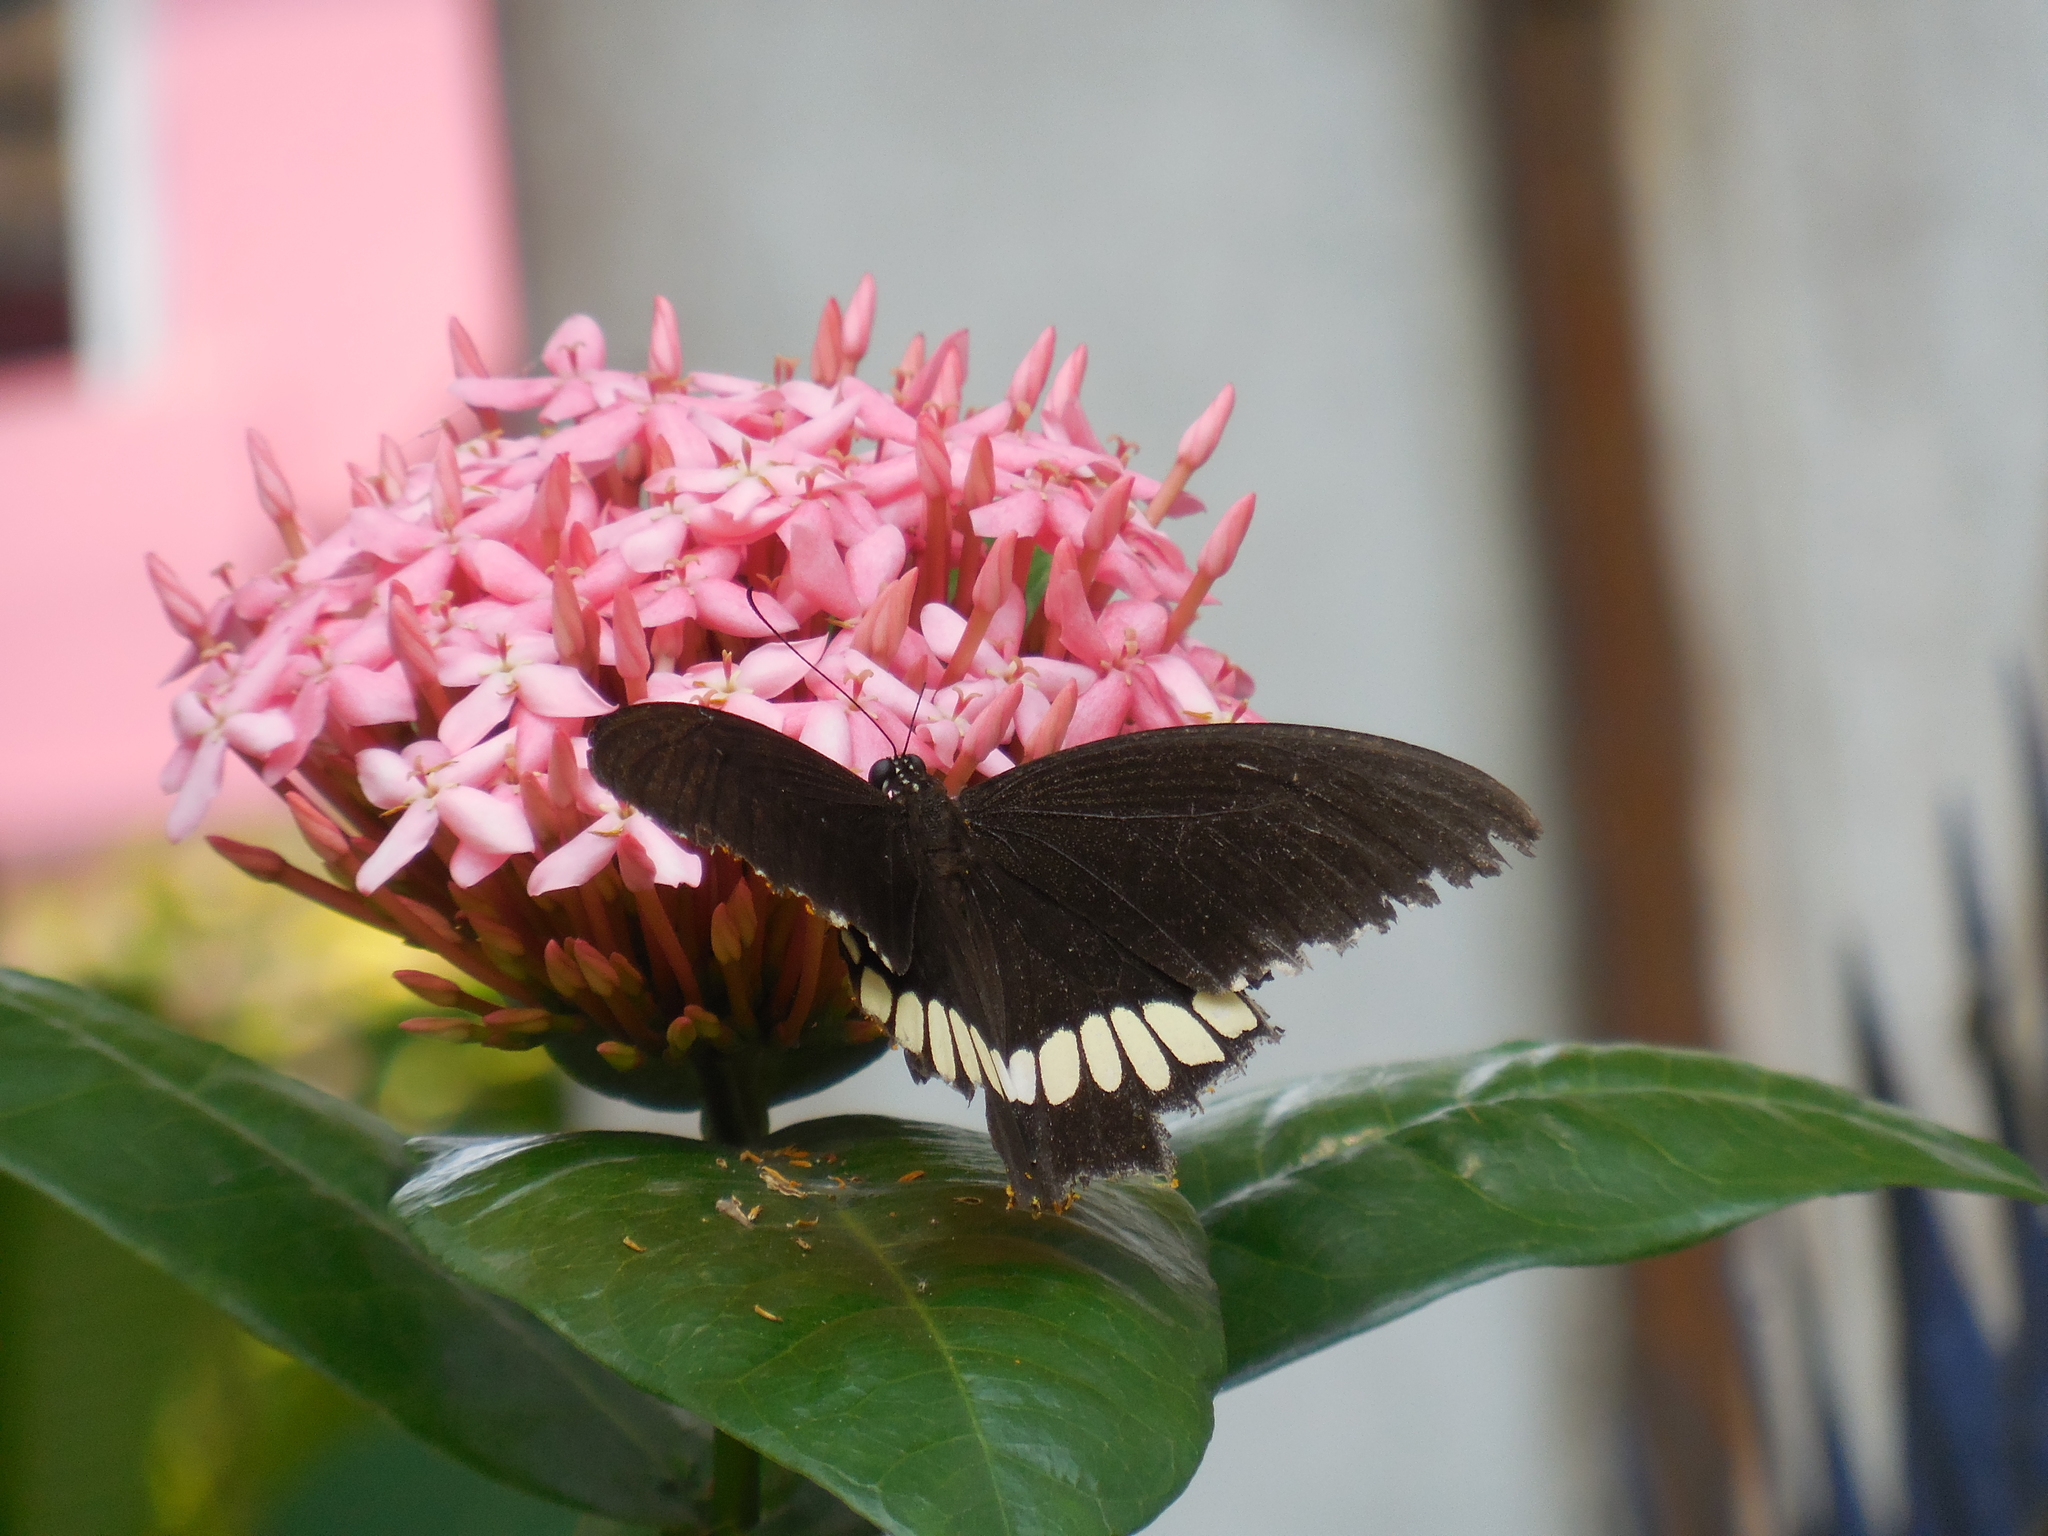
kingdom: Animalia
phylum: Arthropoda
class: Insecta
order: Lepidoptera
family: Papilionidae
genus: Papilio
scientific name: Papilio polytes
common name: Common mormon
